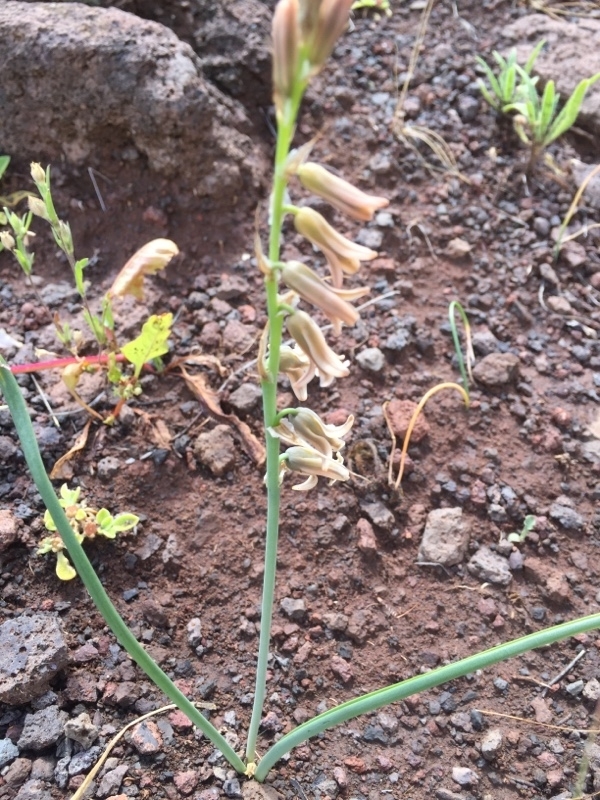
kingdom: Plantae
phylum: Tracheophyta
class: Liliopsida
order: Asparagales
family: Asparagaceae
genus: Dipcadi
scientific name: Dipcadi serotinum
